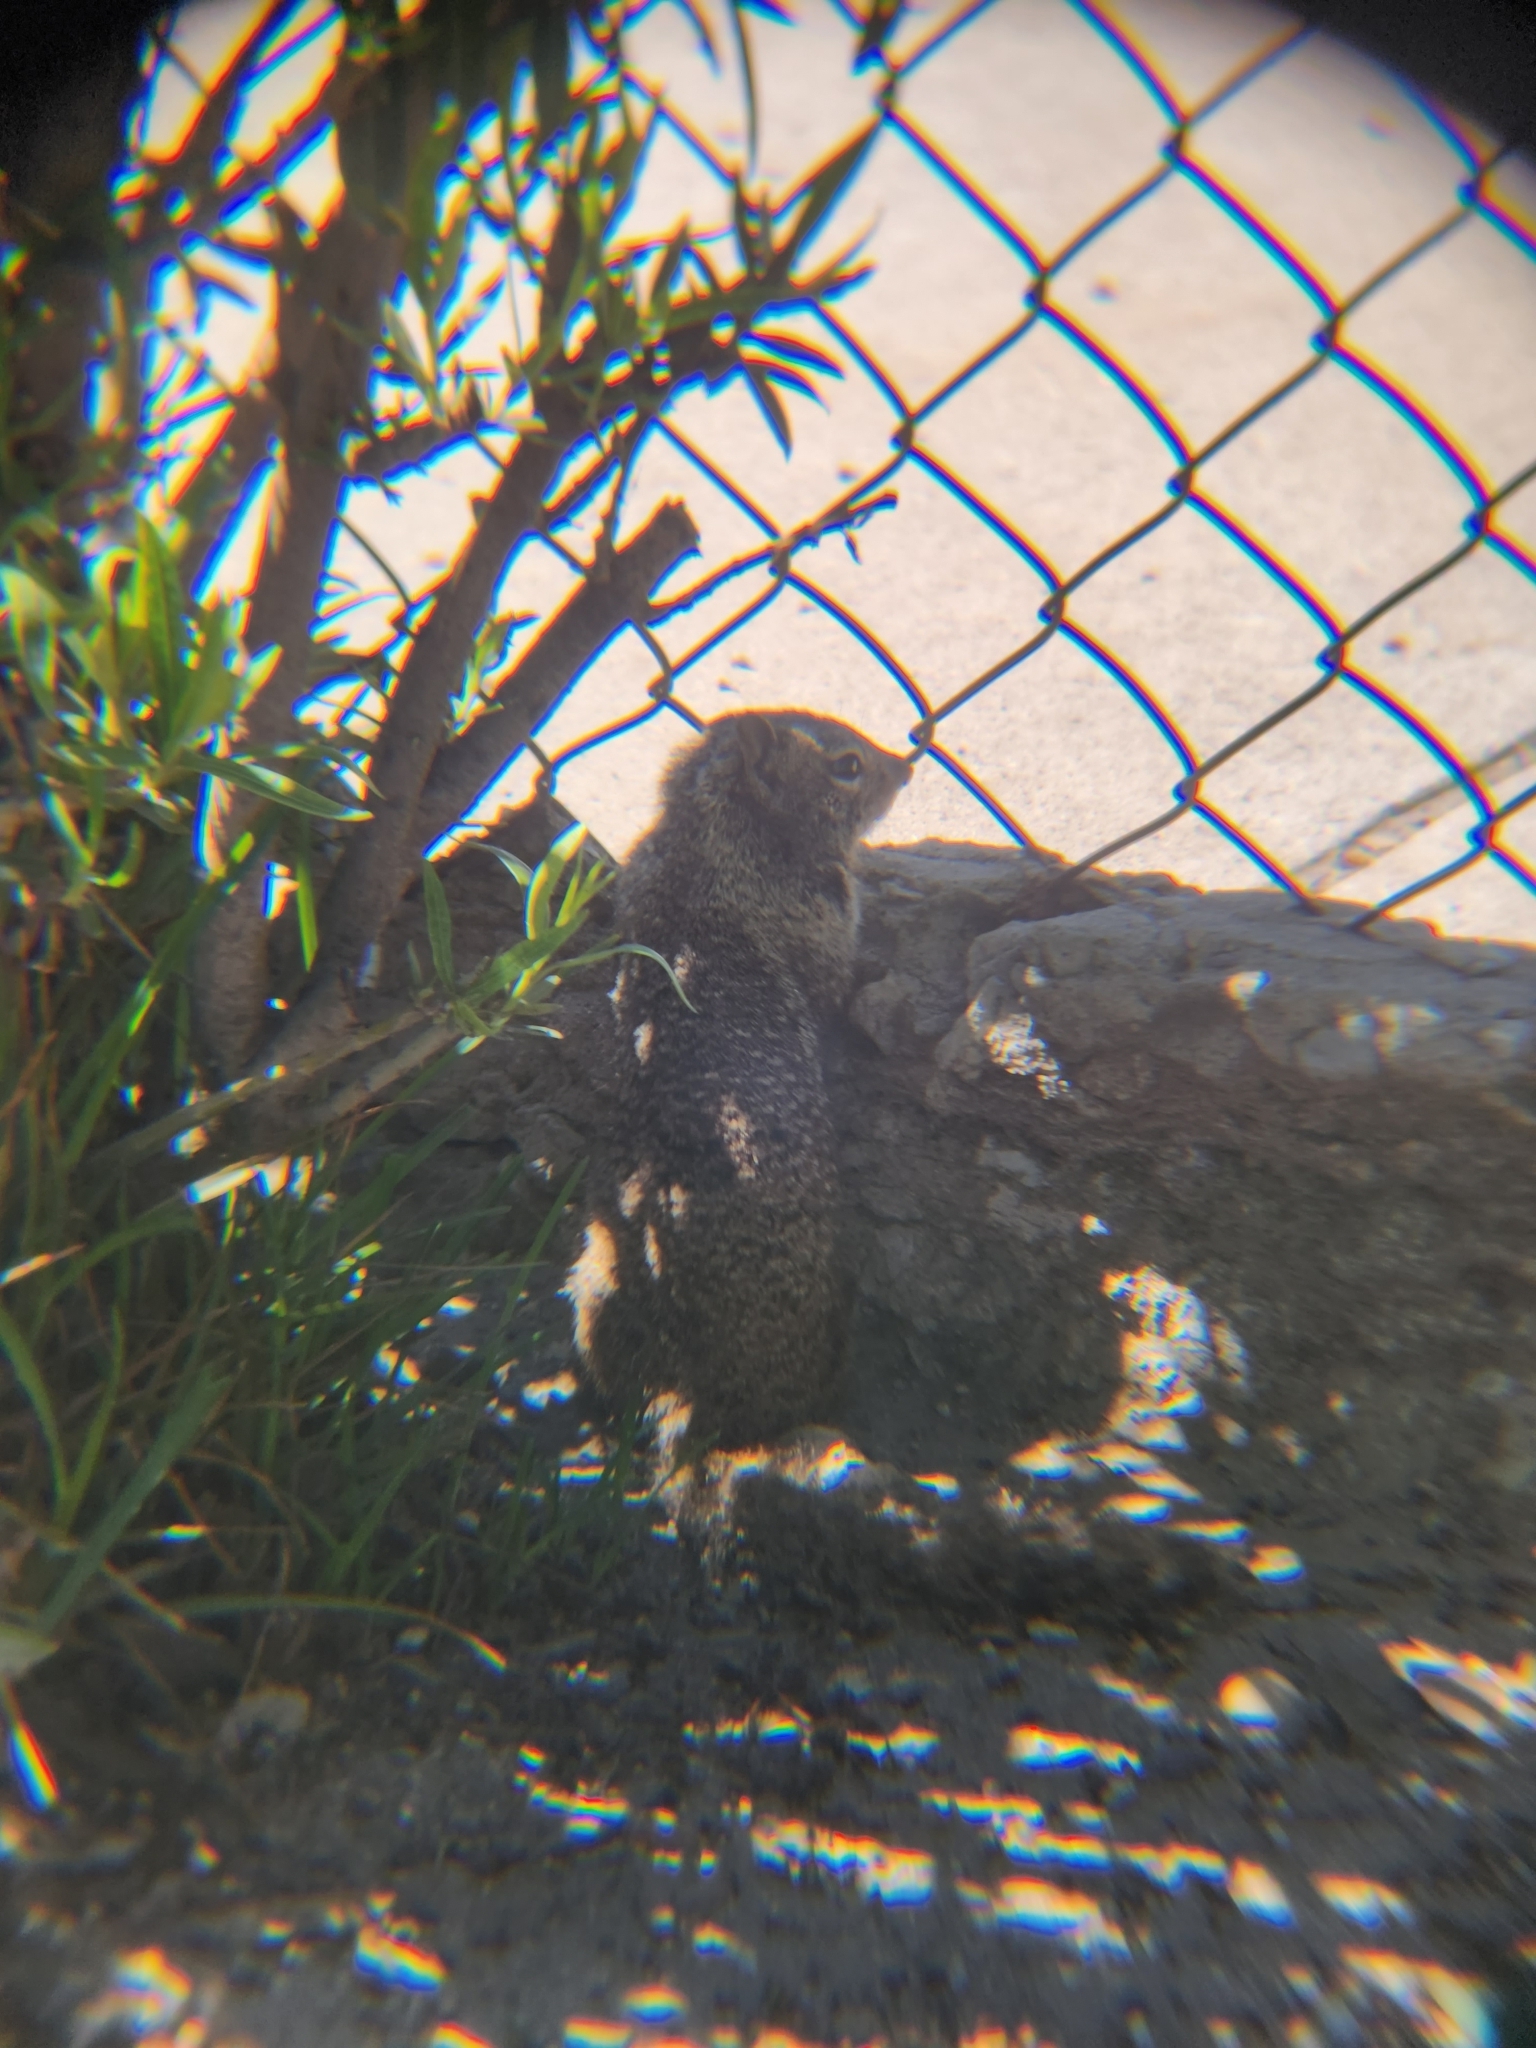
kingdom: Animalia
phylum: Chordata
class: Mammalia
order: Rodentia
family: Sciuridae
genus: Otospermophilus
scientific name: Otospermophilus beecheyi
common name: California ground squirrel
